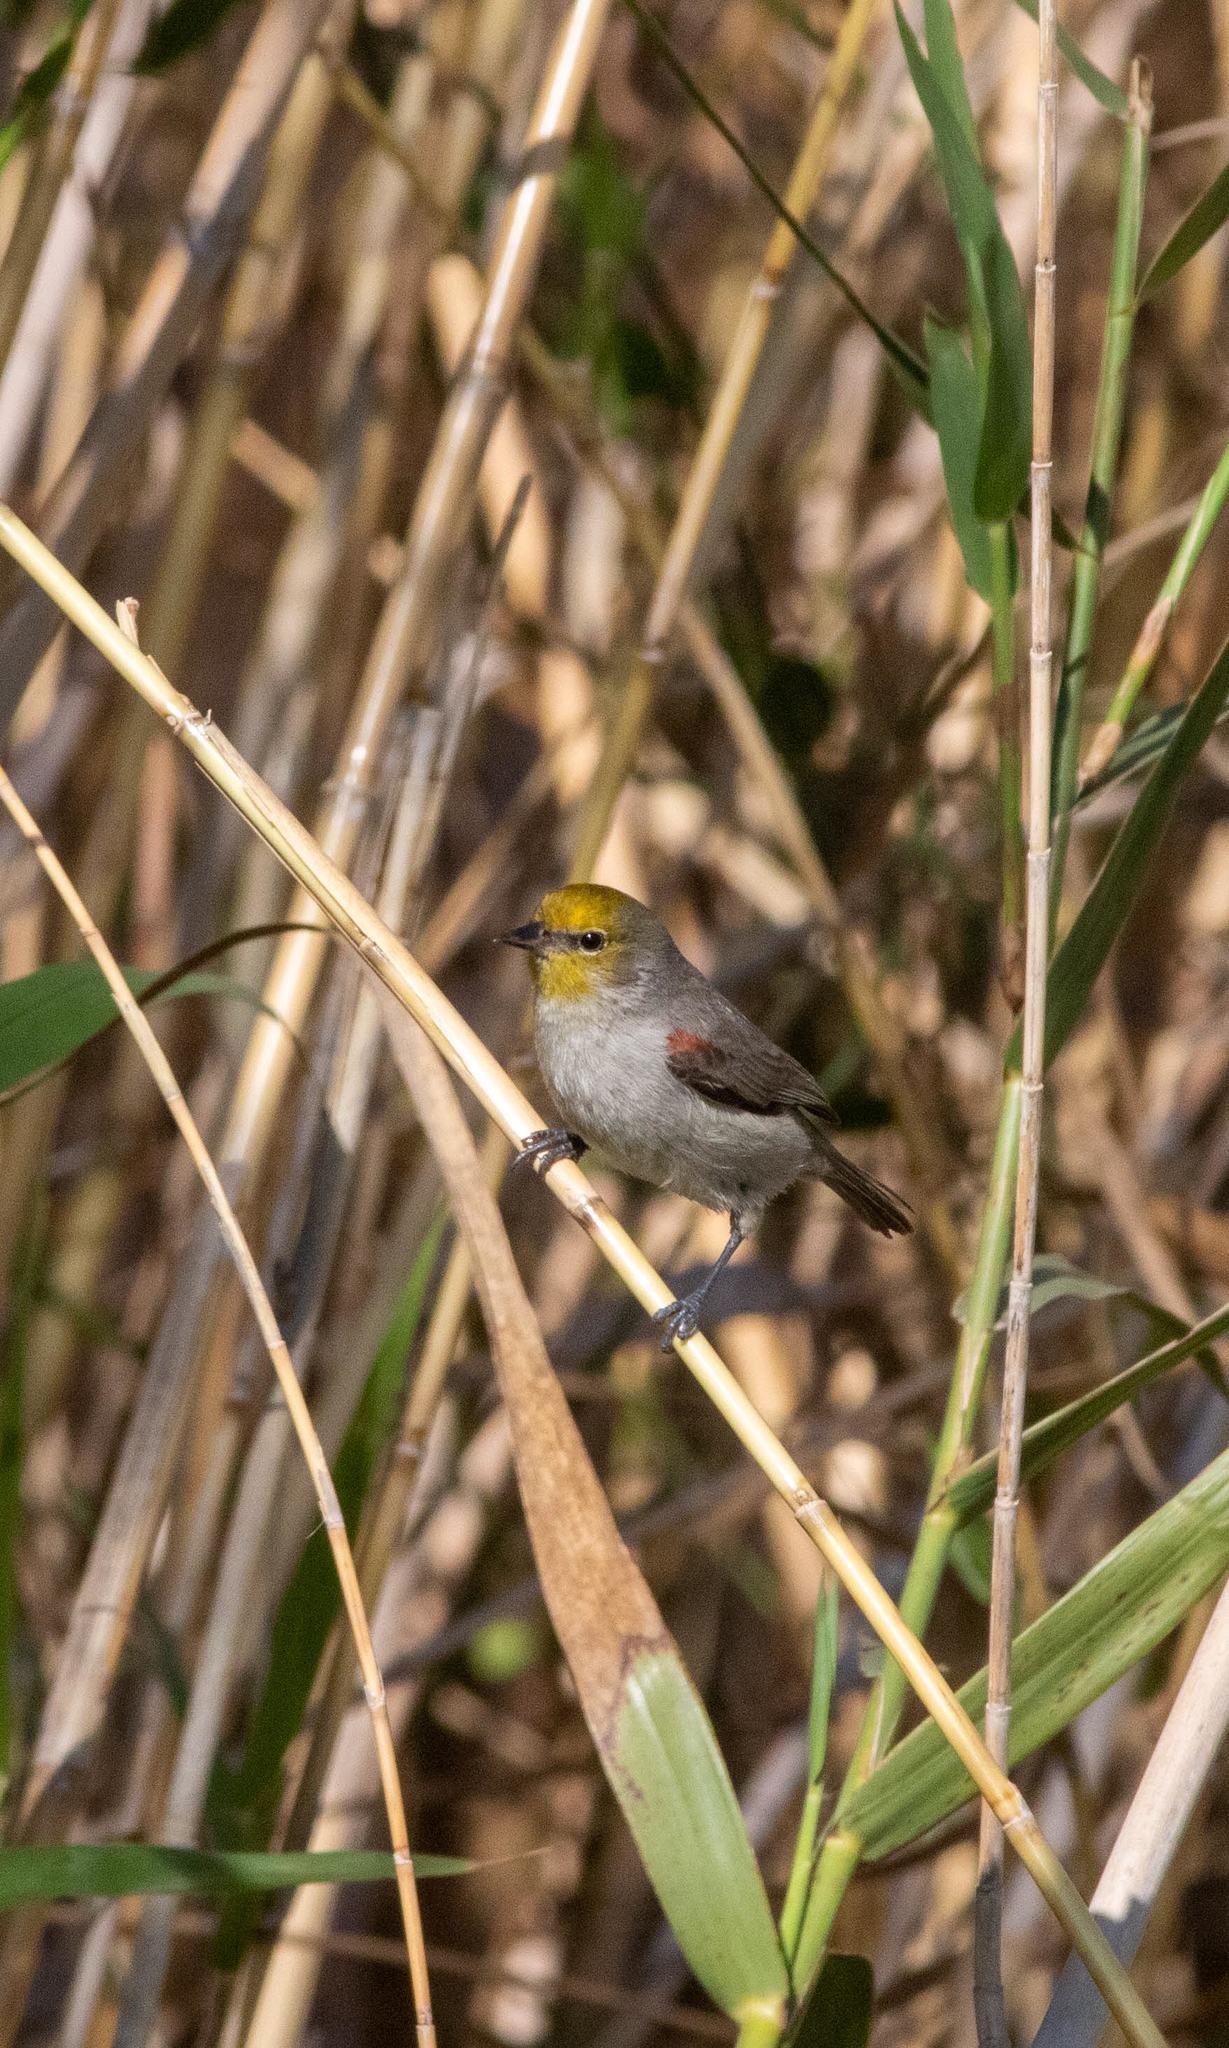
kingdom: Animalia
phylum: Chordata
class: Aves
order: Passeriformes
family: Remizidae
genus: Auriparus
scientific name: Auriparus flaviceps
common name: Verdin
